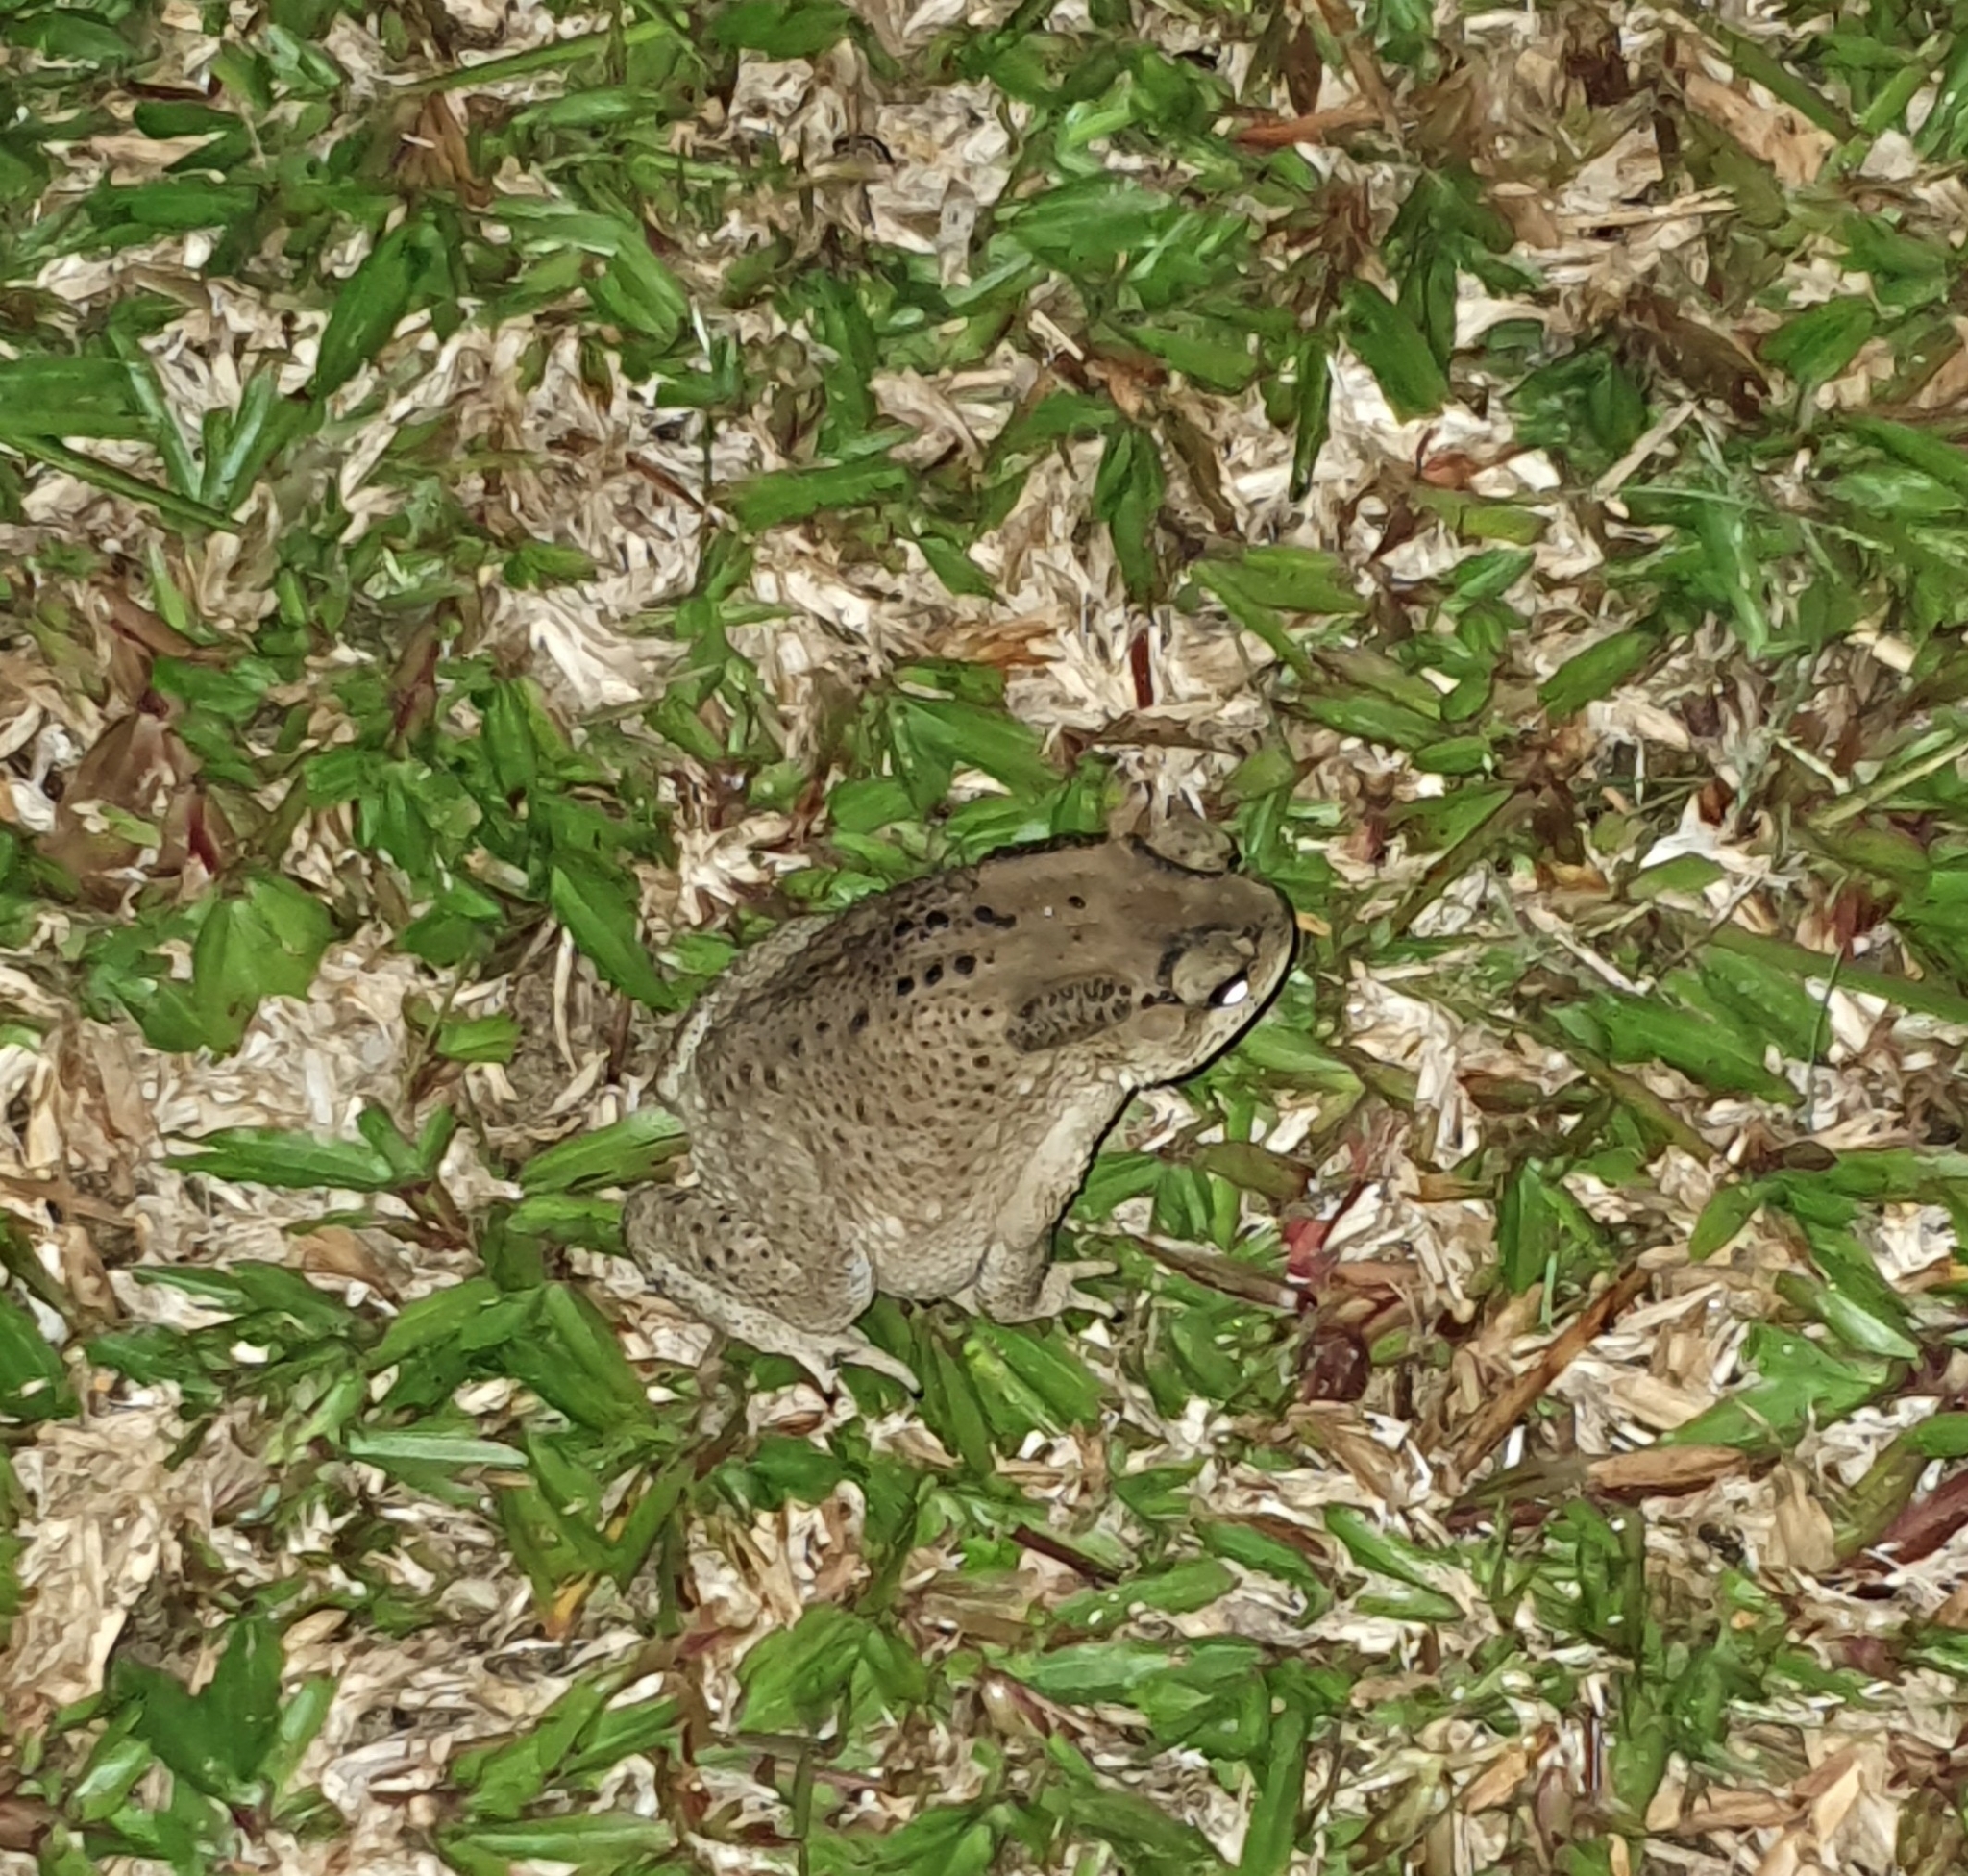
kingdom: Animalia
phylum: Chordata
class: Amphibia
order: Anura
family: Bufonidae
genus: Duttaphrynus
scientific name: Duttaphrynus melanostictus
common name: Common sunda toad
